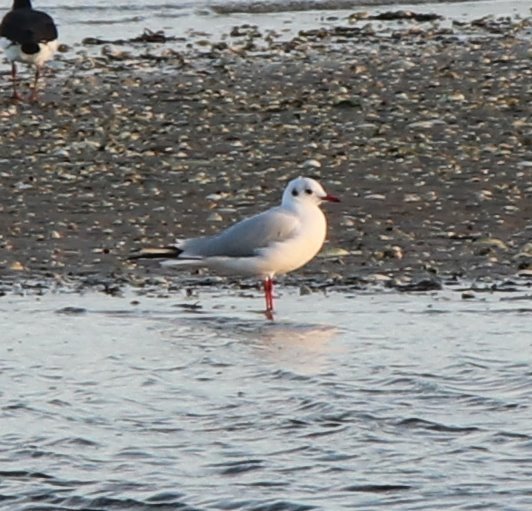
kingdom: Animalia
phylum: Chordata
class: Aves
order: Charadriiformes
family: Laridae
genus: Chroicocephalus
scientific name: Chroicocephalus ridibundus
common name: Black-headed gull
